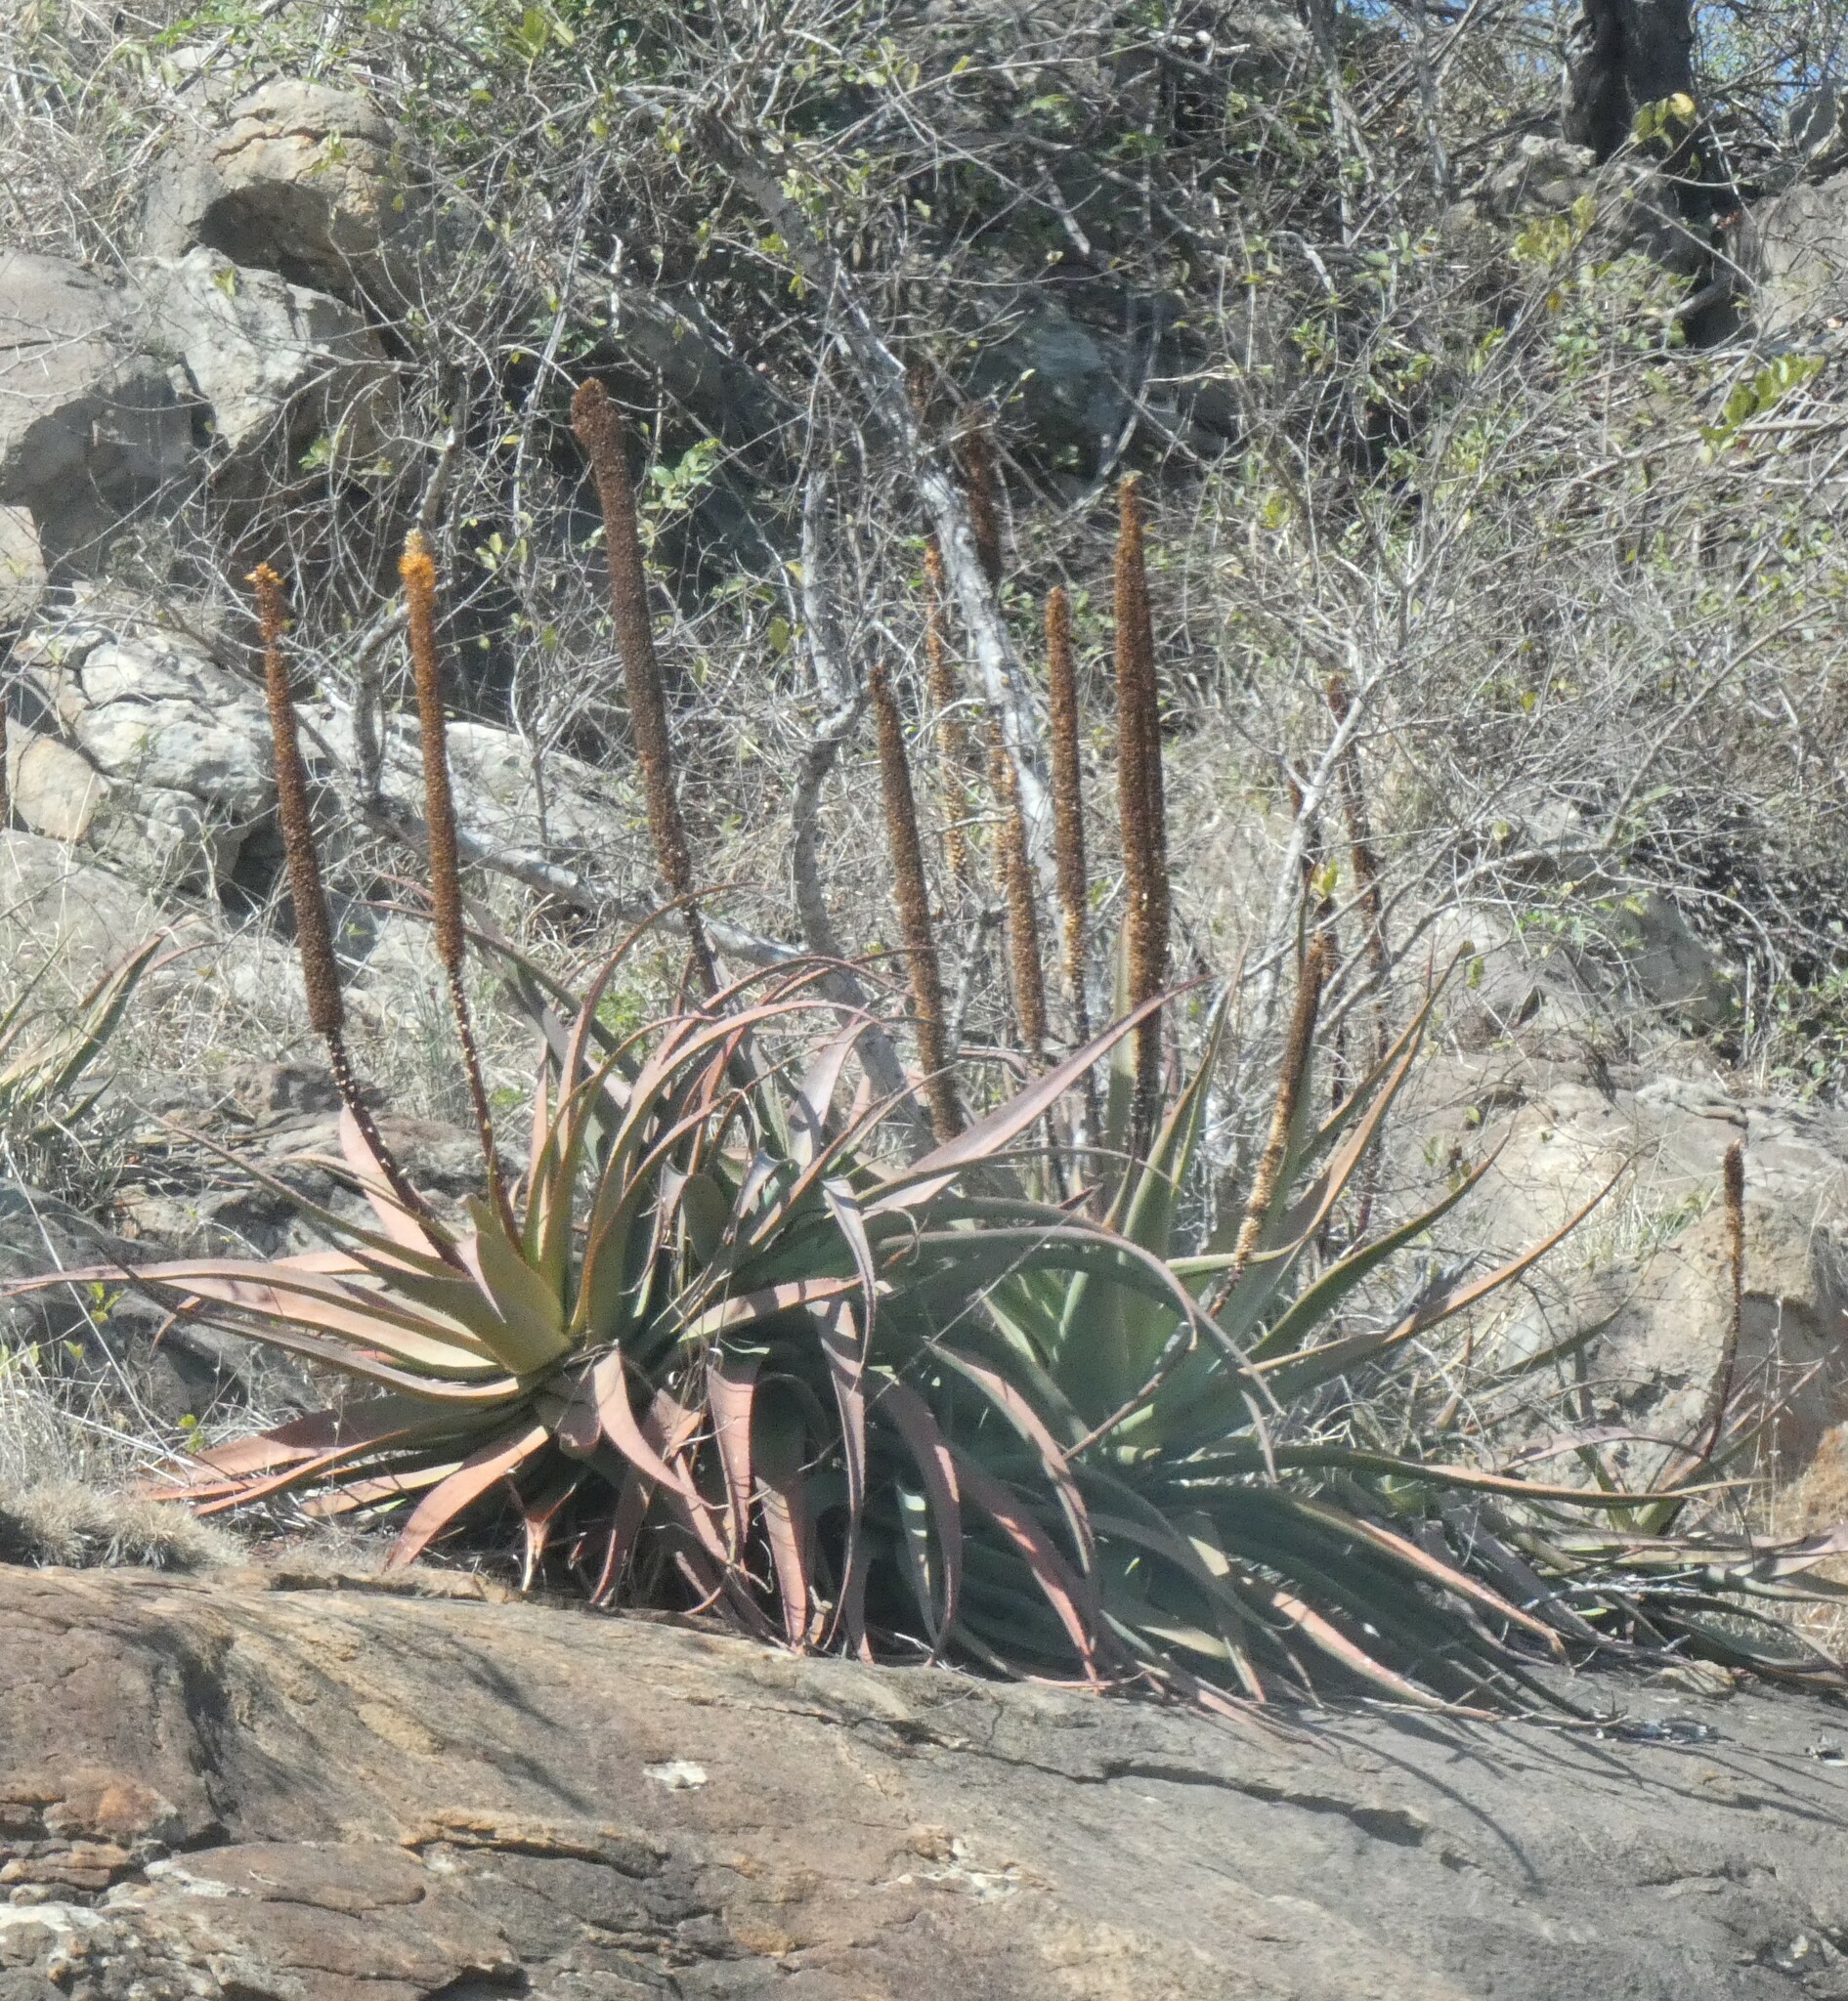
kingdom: Plantae
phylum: Tracheophyta
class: Liliopsida
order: Asparagales
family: Asphodelaceae
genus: Aloe
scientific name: Aloe spicata
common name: Gazaland aloe
